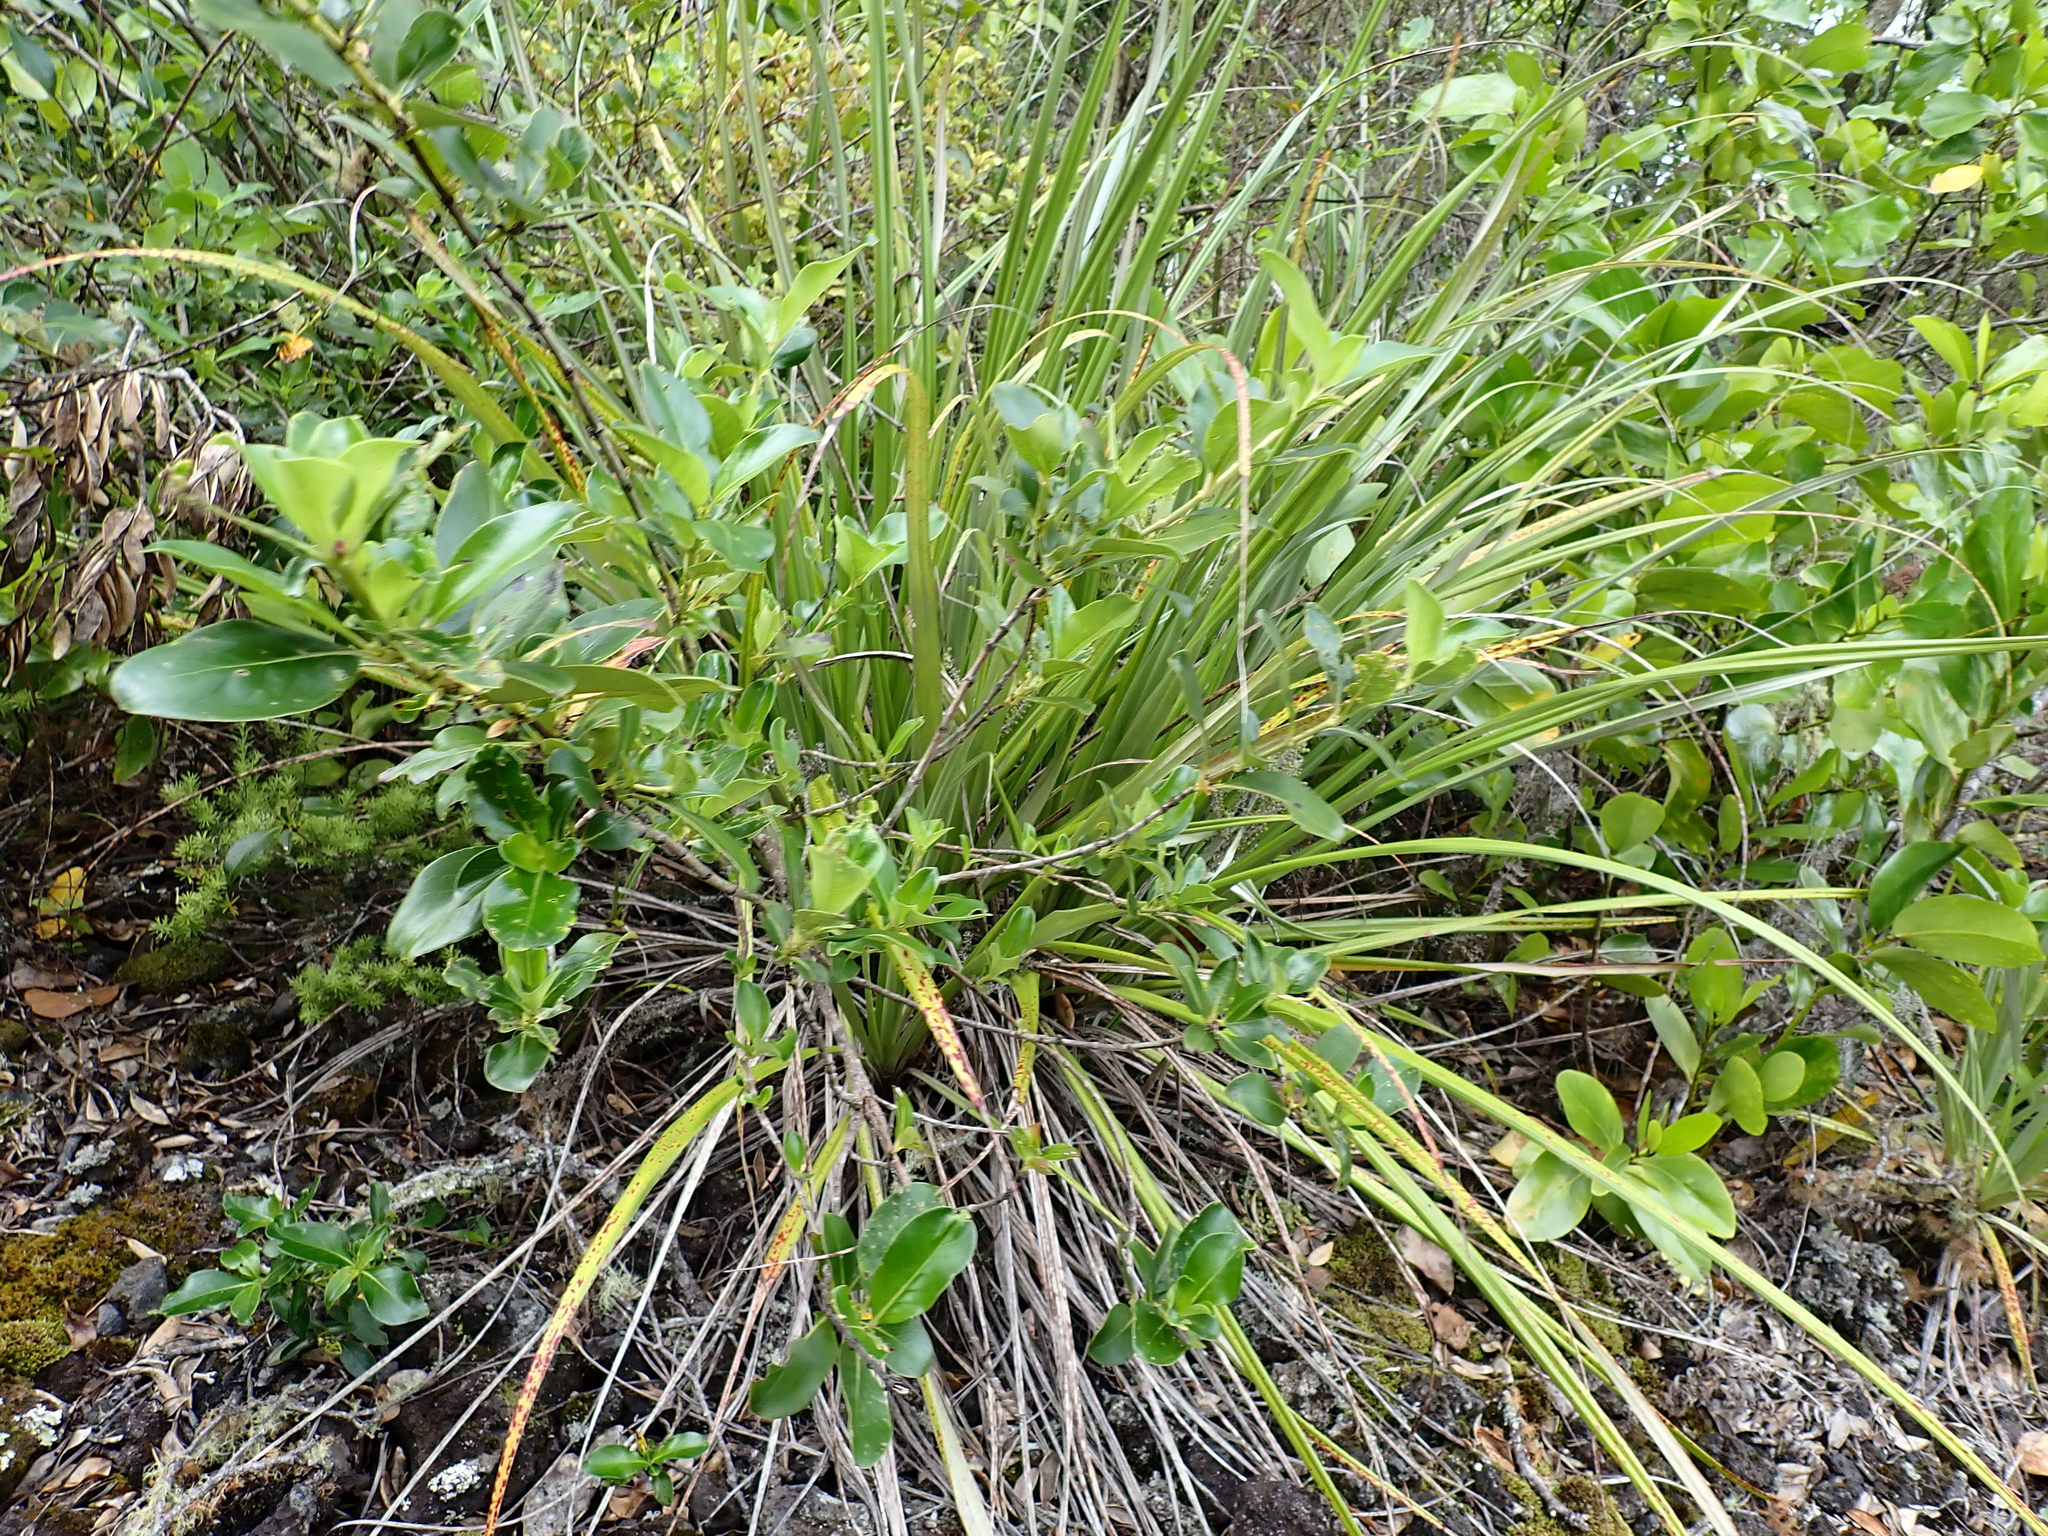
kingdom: Plantae
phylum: Tracheophyta
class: Magnoliopsida
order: Gentianales
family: Rubiaceae
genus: Coprosma
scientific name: Coprosma macrocarpa
